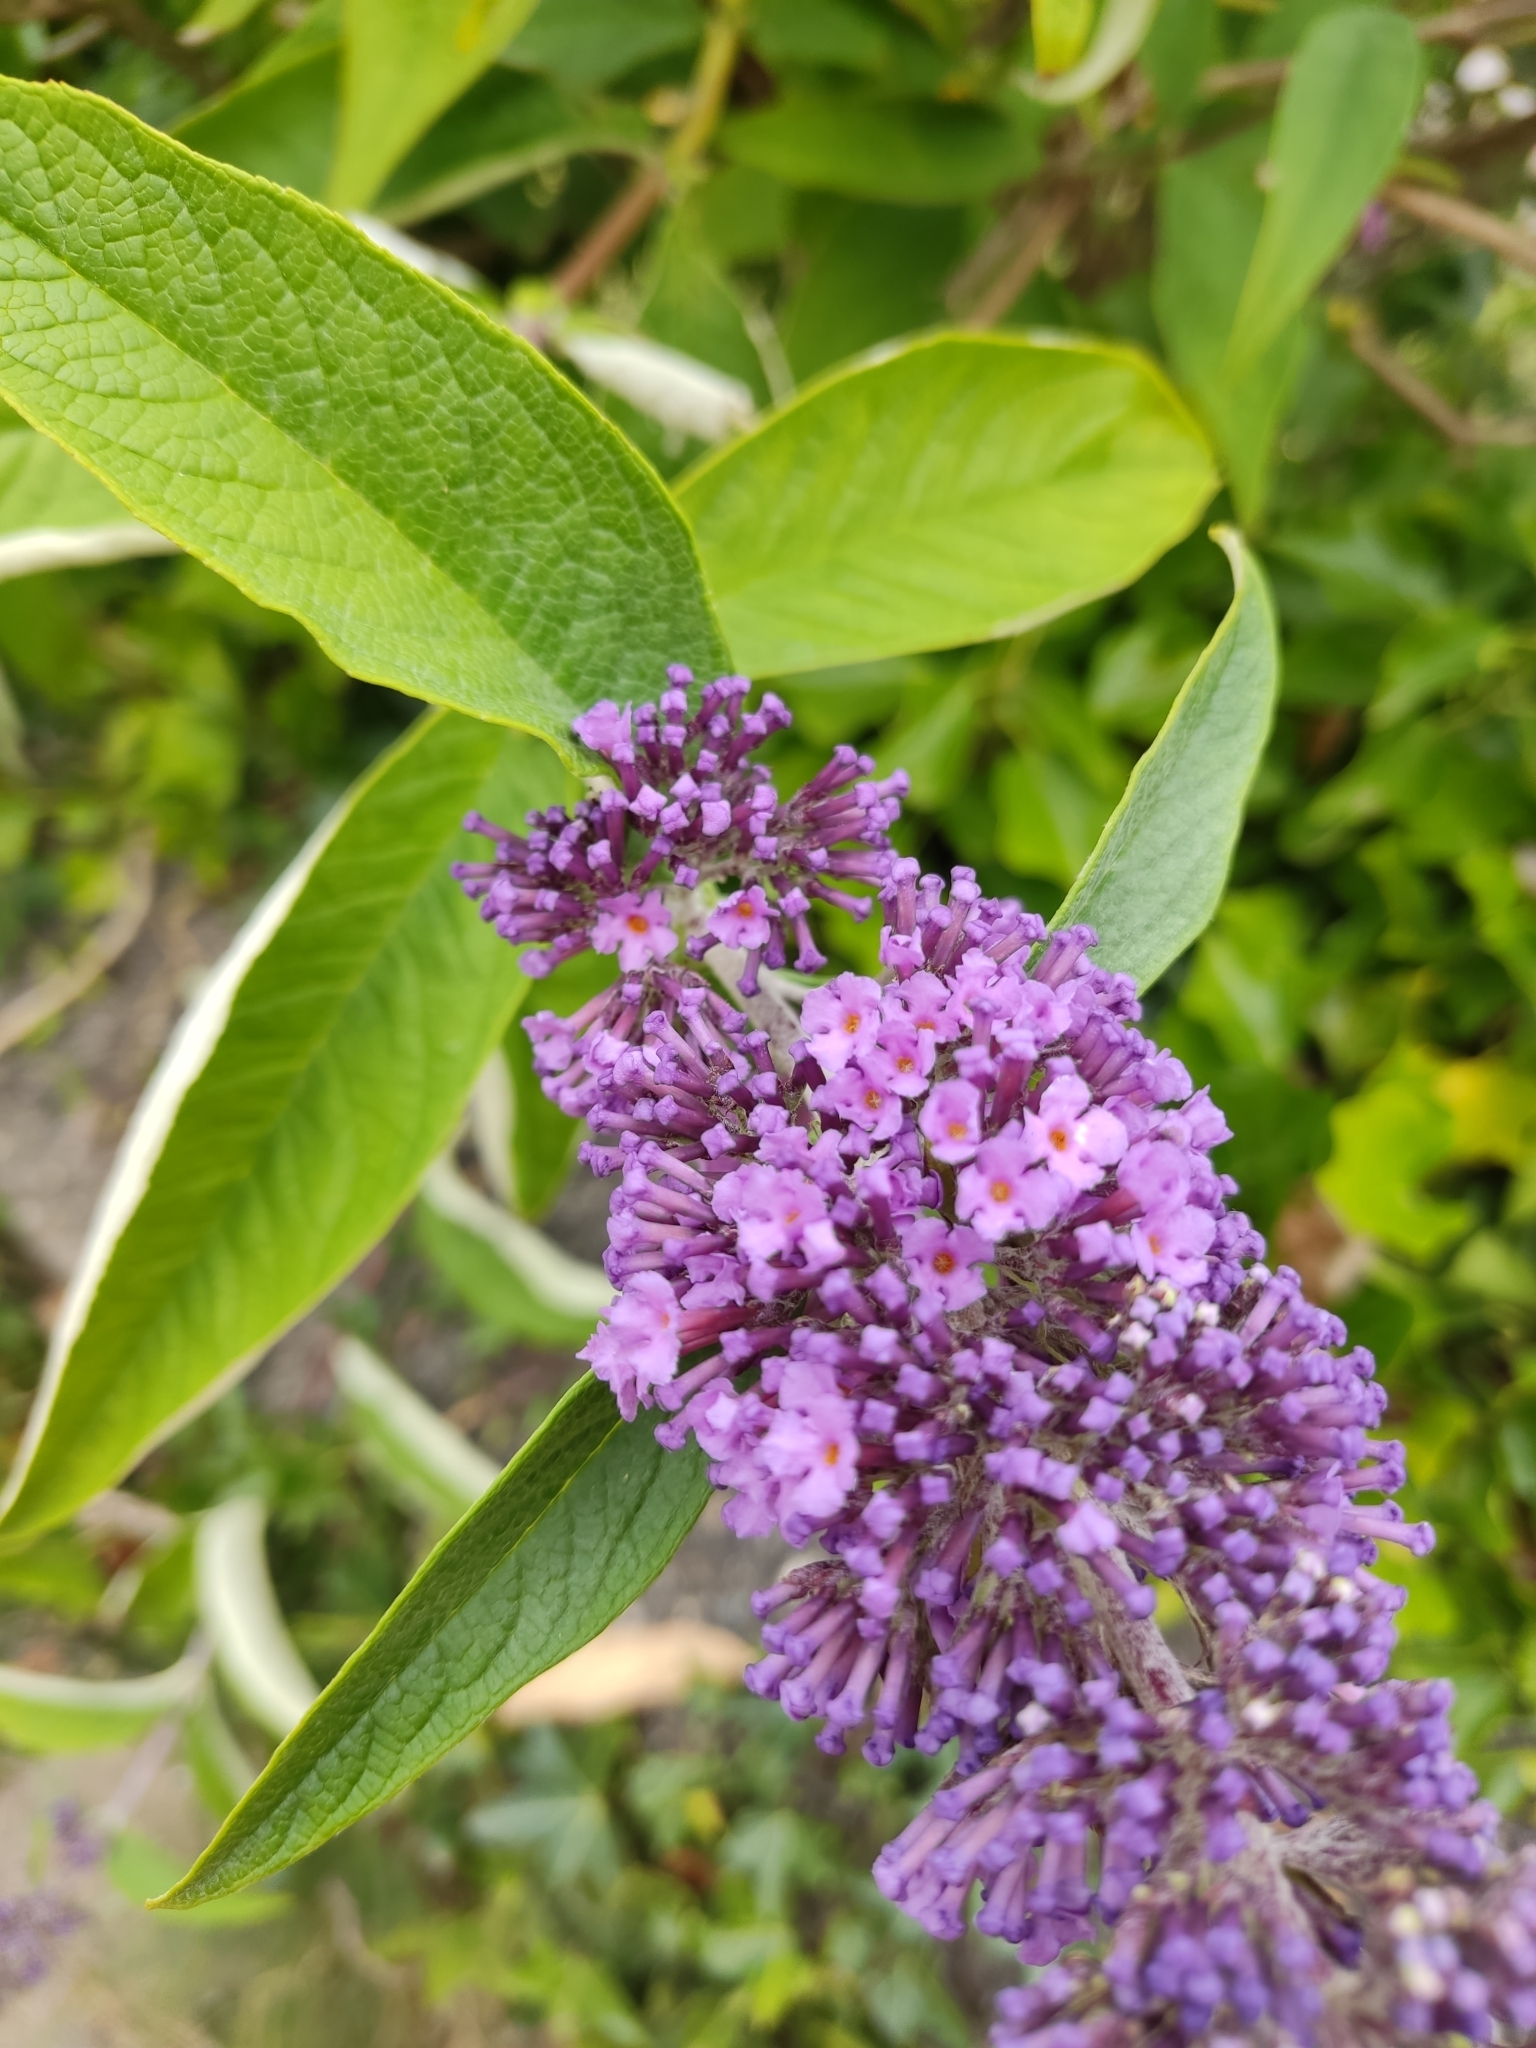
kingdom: Plantae
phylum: Tracheophyta
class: Magnoliopsida
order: Lamiales
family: Scrophulariaceae
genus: Buddleja
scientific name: Buddleja davidii
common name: Butterfly-bush
